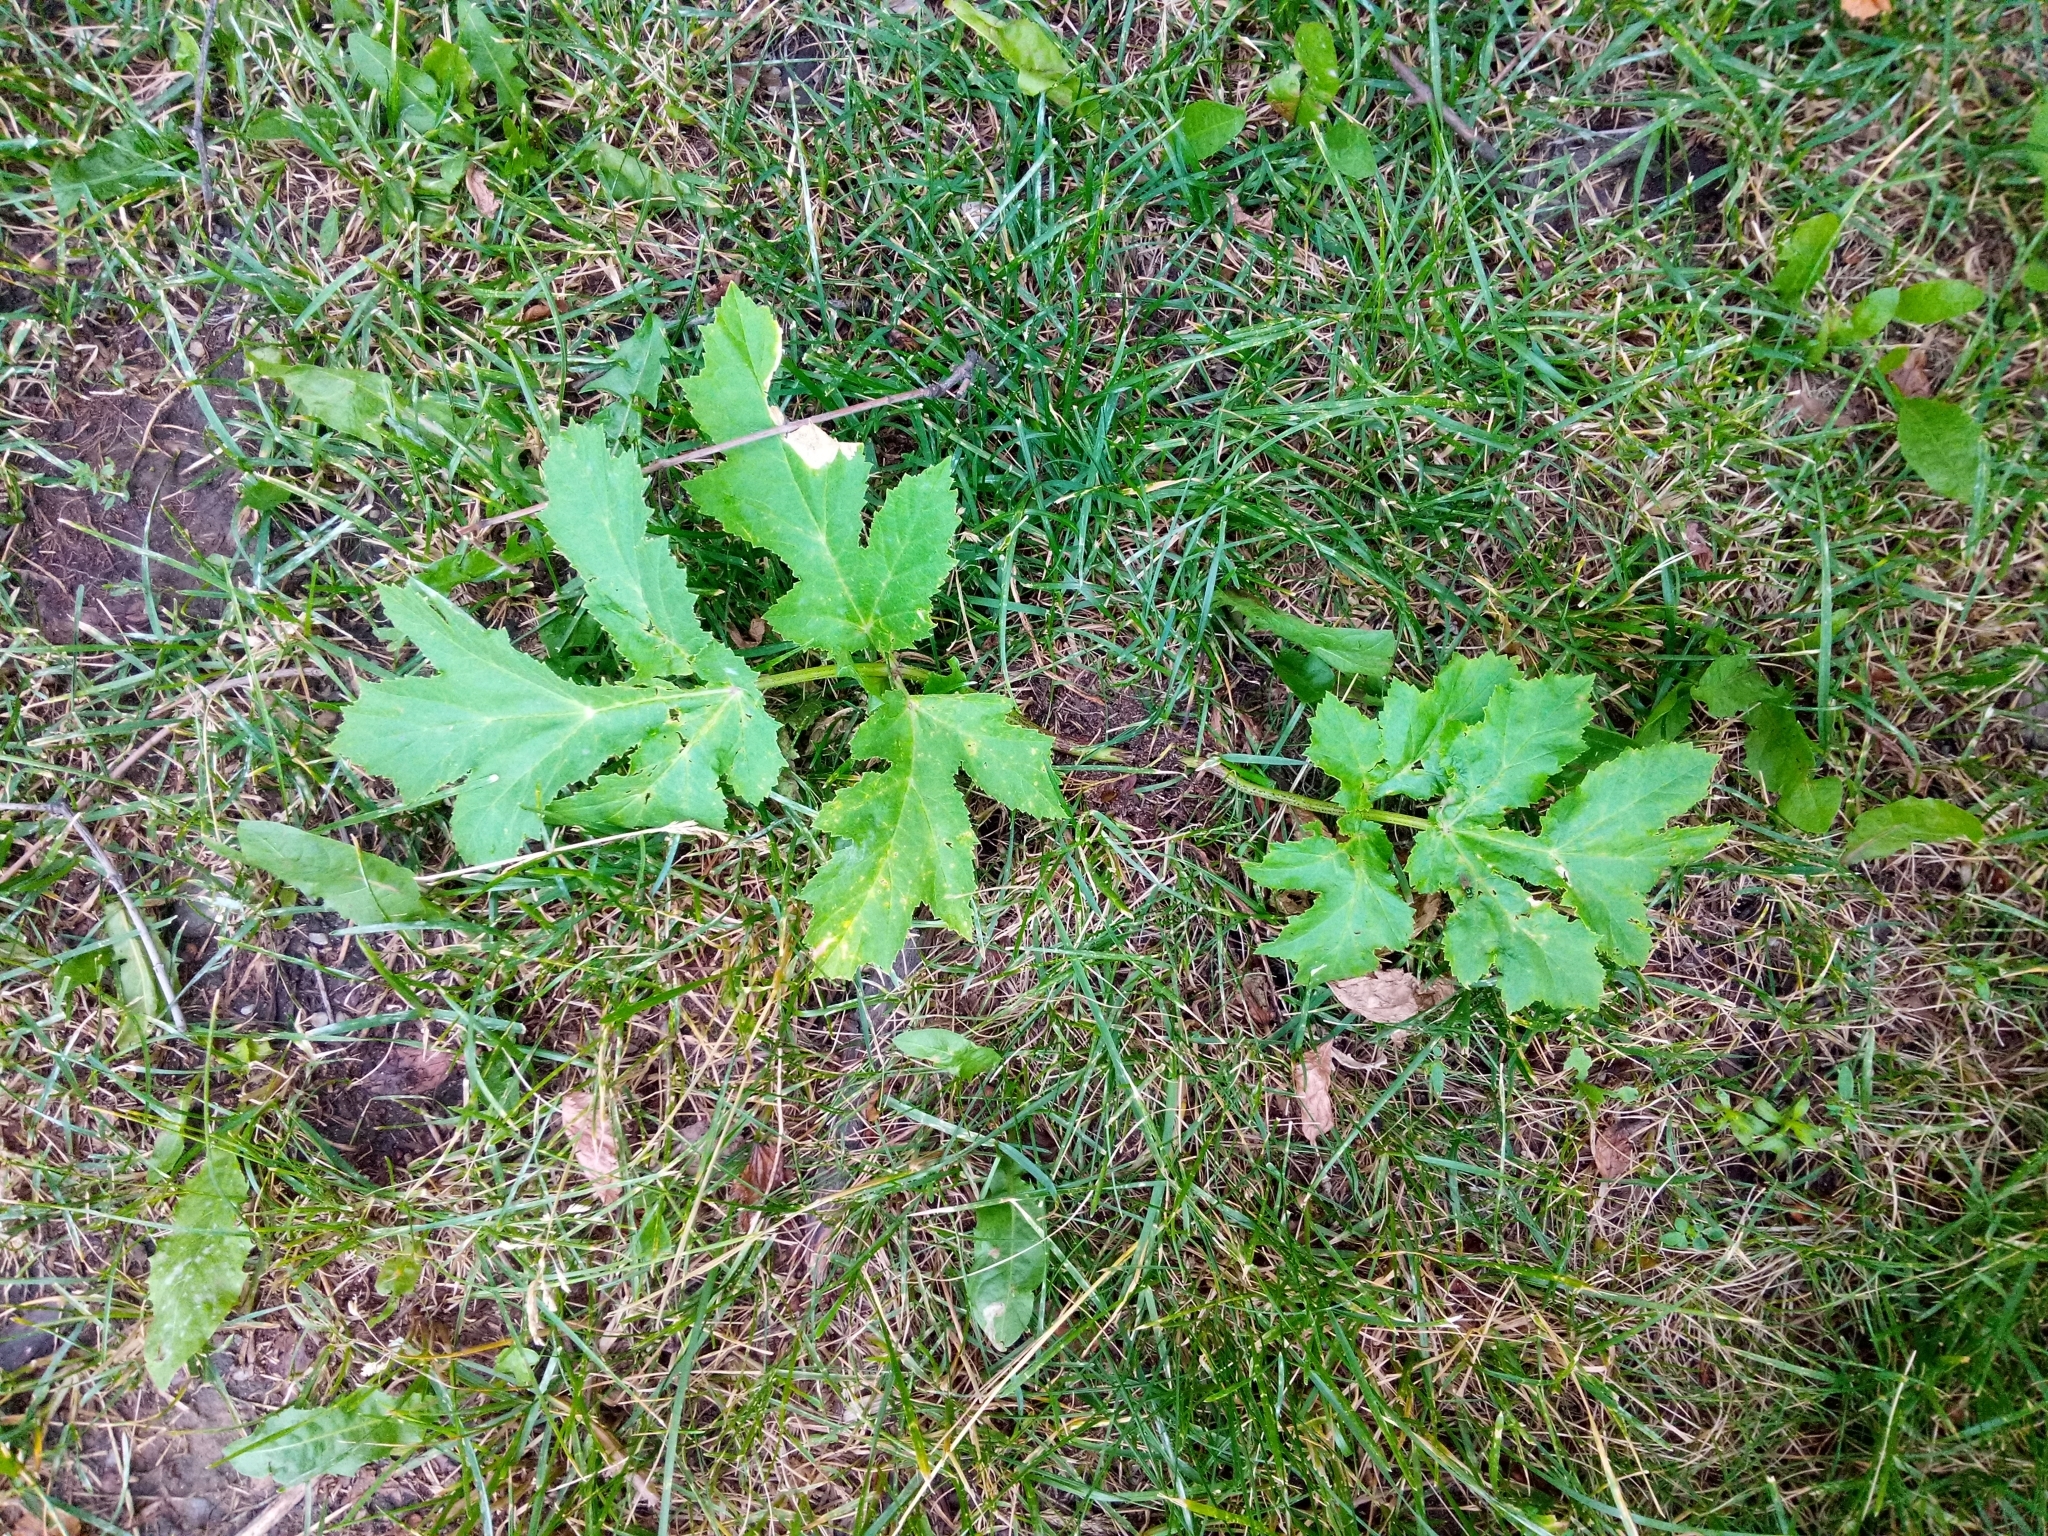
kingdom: Plantae
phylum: Tracheophyta
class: Magnoliopsida
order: Apiales
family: Apiaceae
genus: Heracleum
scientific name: Heracleum sosnowskyi
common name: Sosnowsky's hogweed
